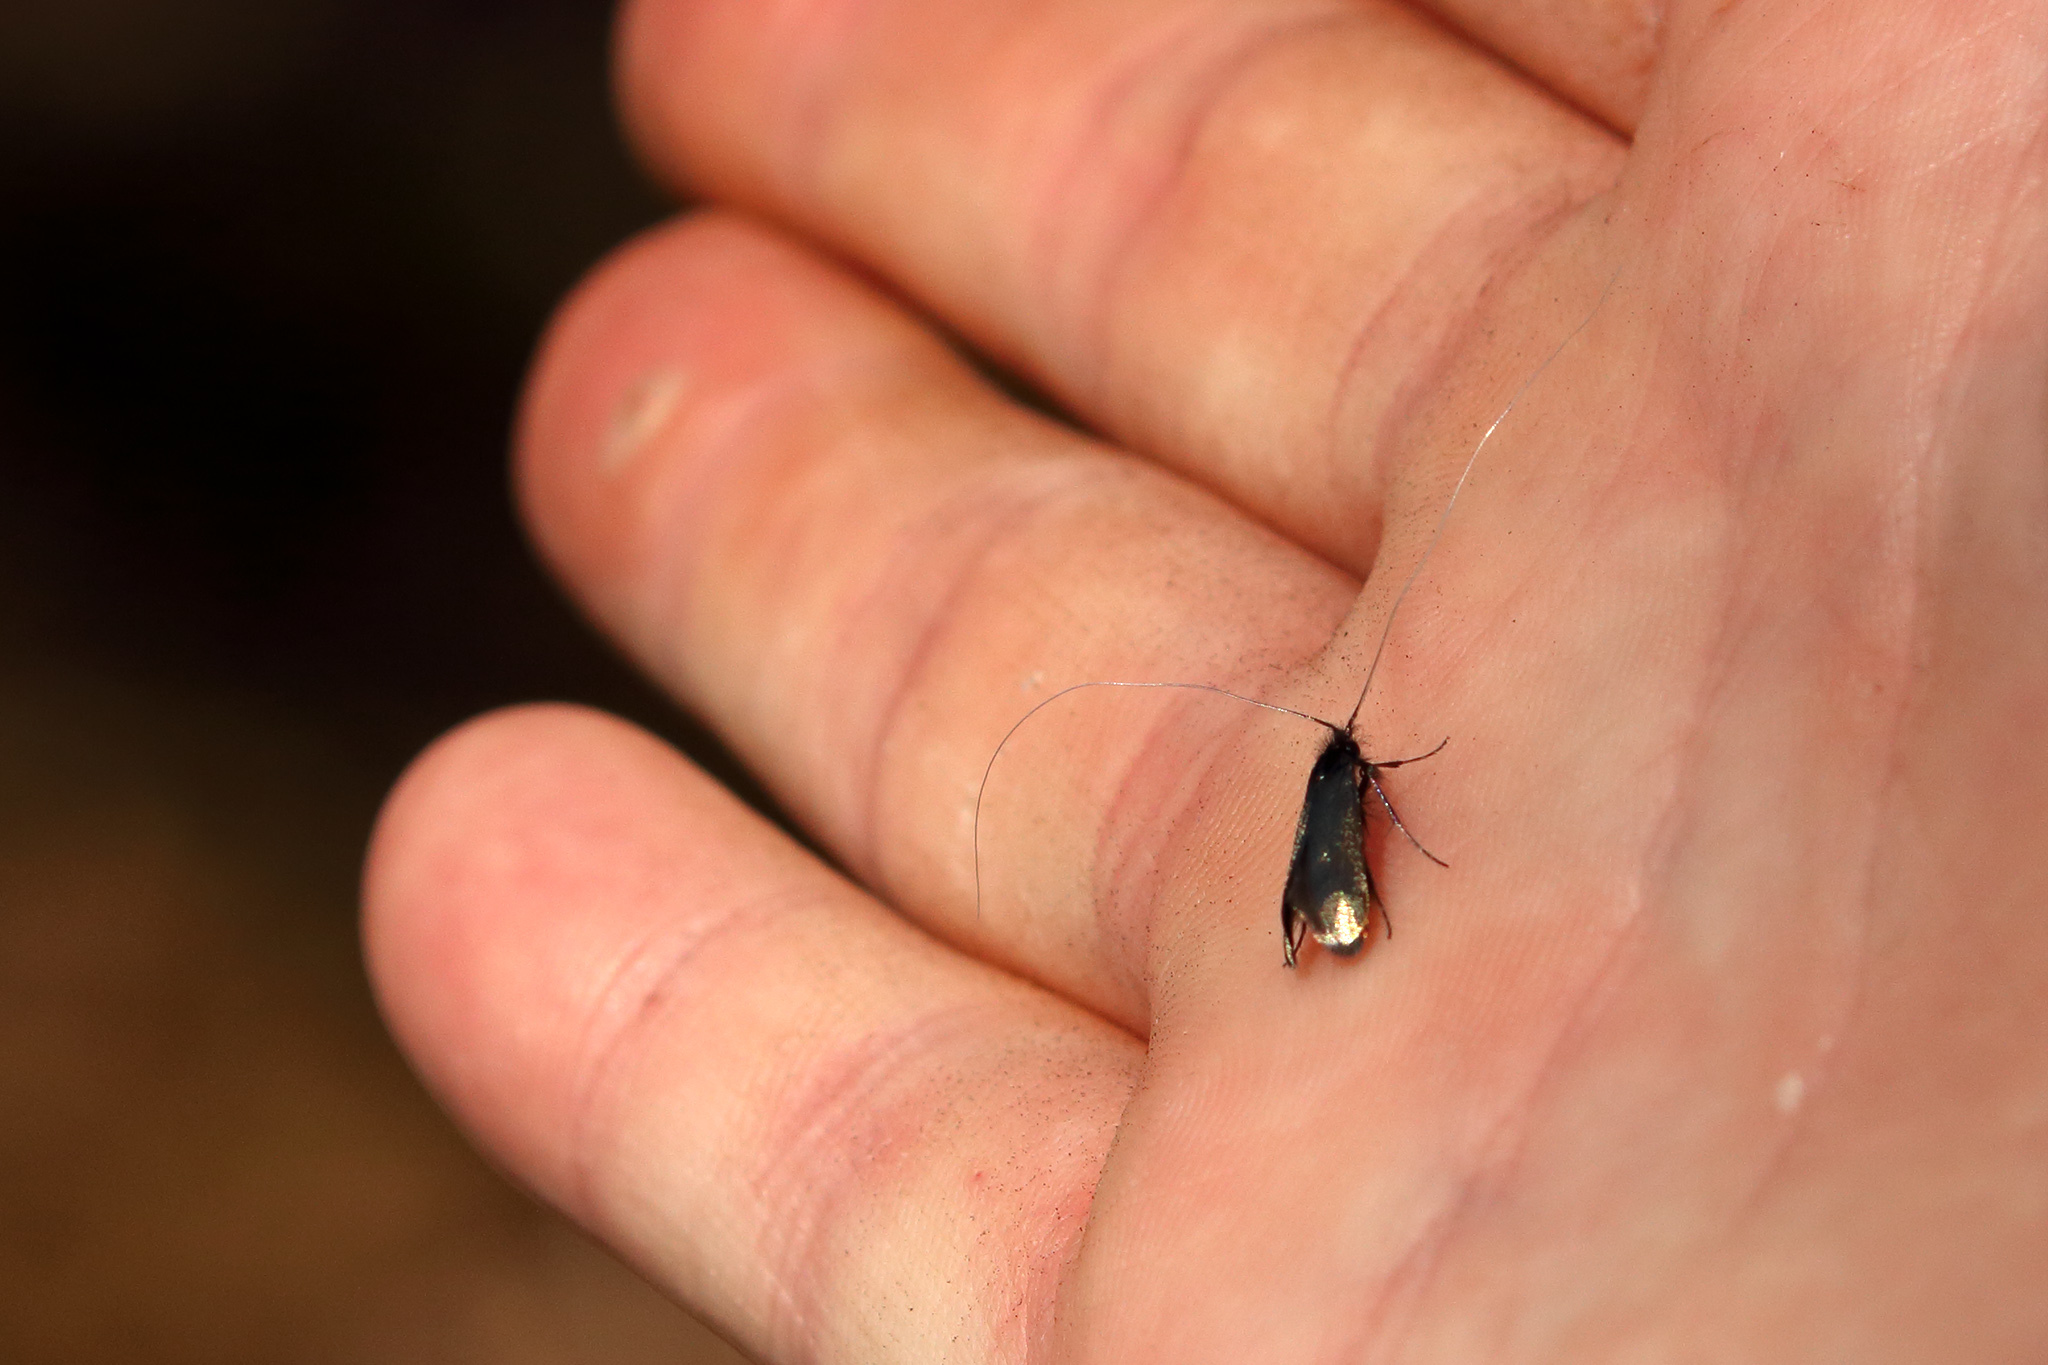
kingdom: Animalia
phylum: Arthropoda
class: Insecta
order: Lepidoptera
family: Adelidae
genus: Adela
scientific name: Adela viridella
